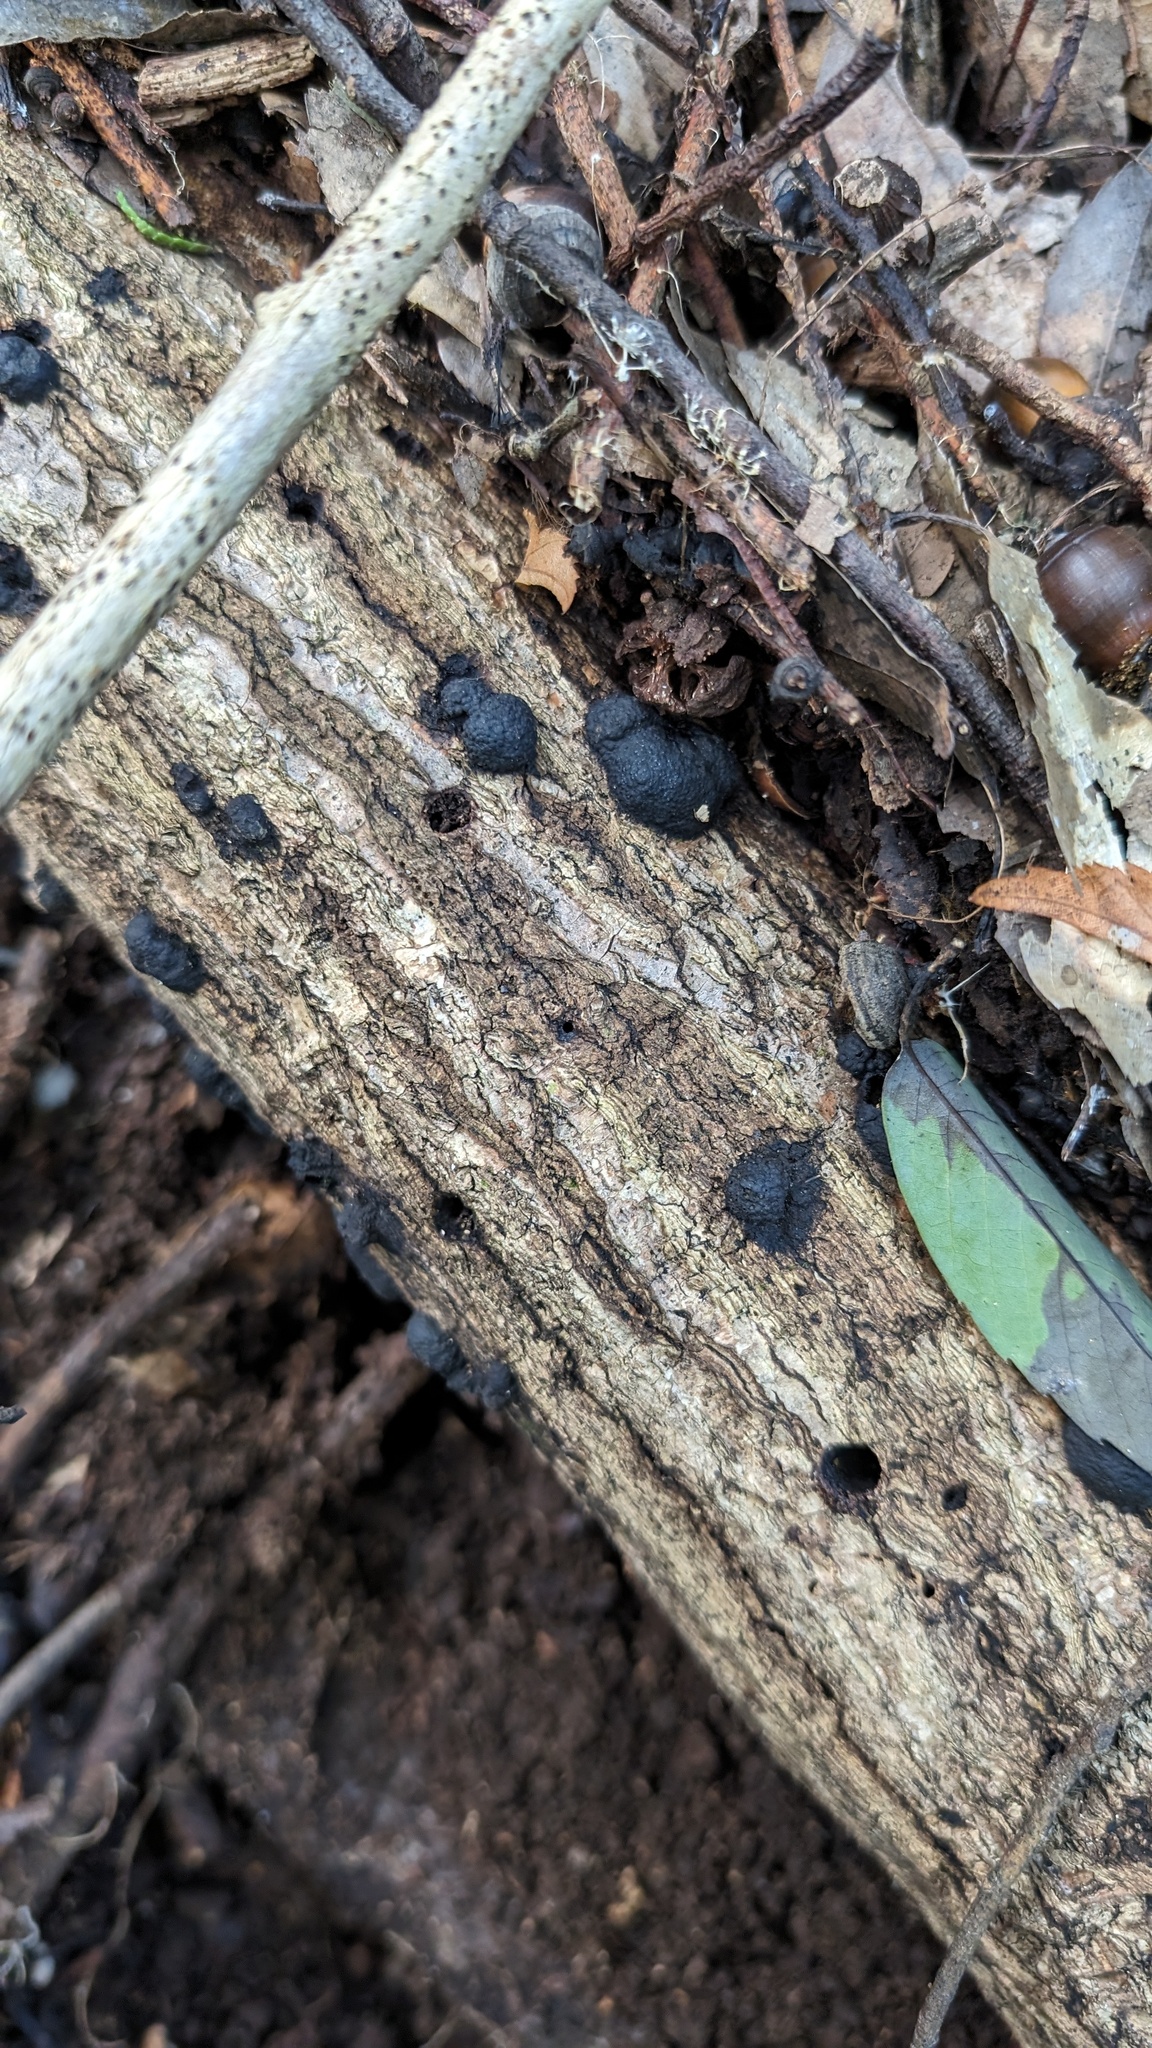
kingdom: Fungi
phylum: Ascomycota
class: Sordariomycetes
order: Xylariales
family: Hypoxylaceae
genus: Annulohypoxylon
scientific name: Annulohypoxylon truncatum
